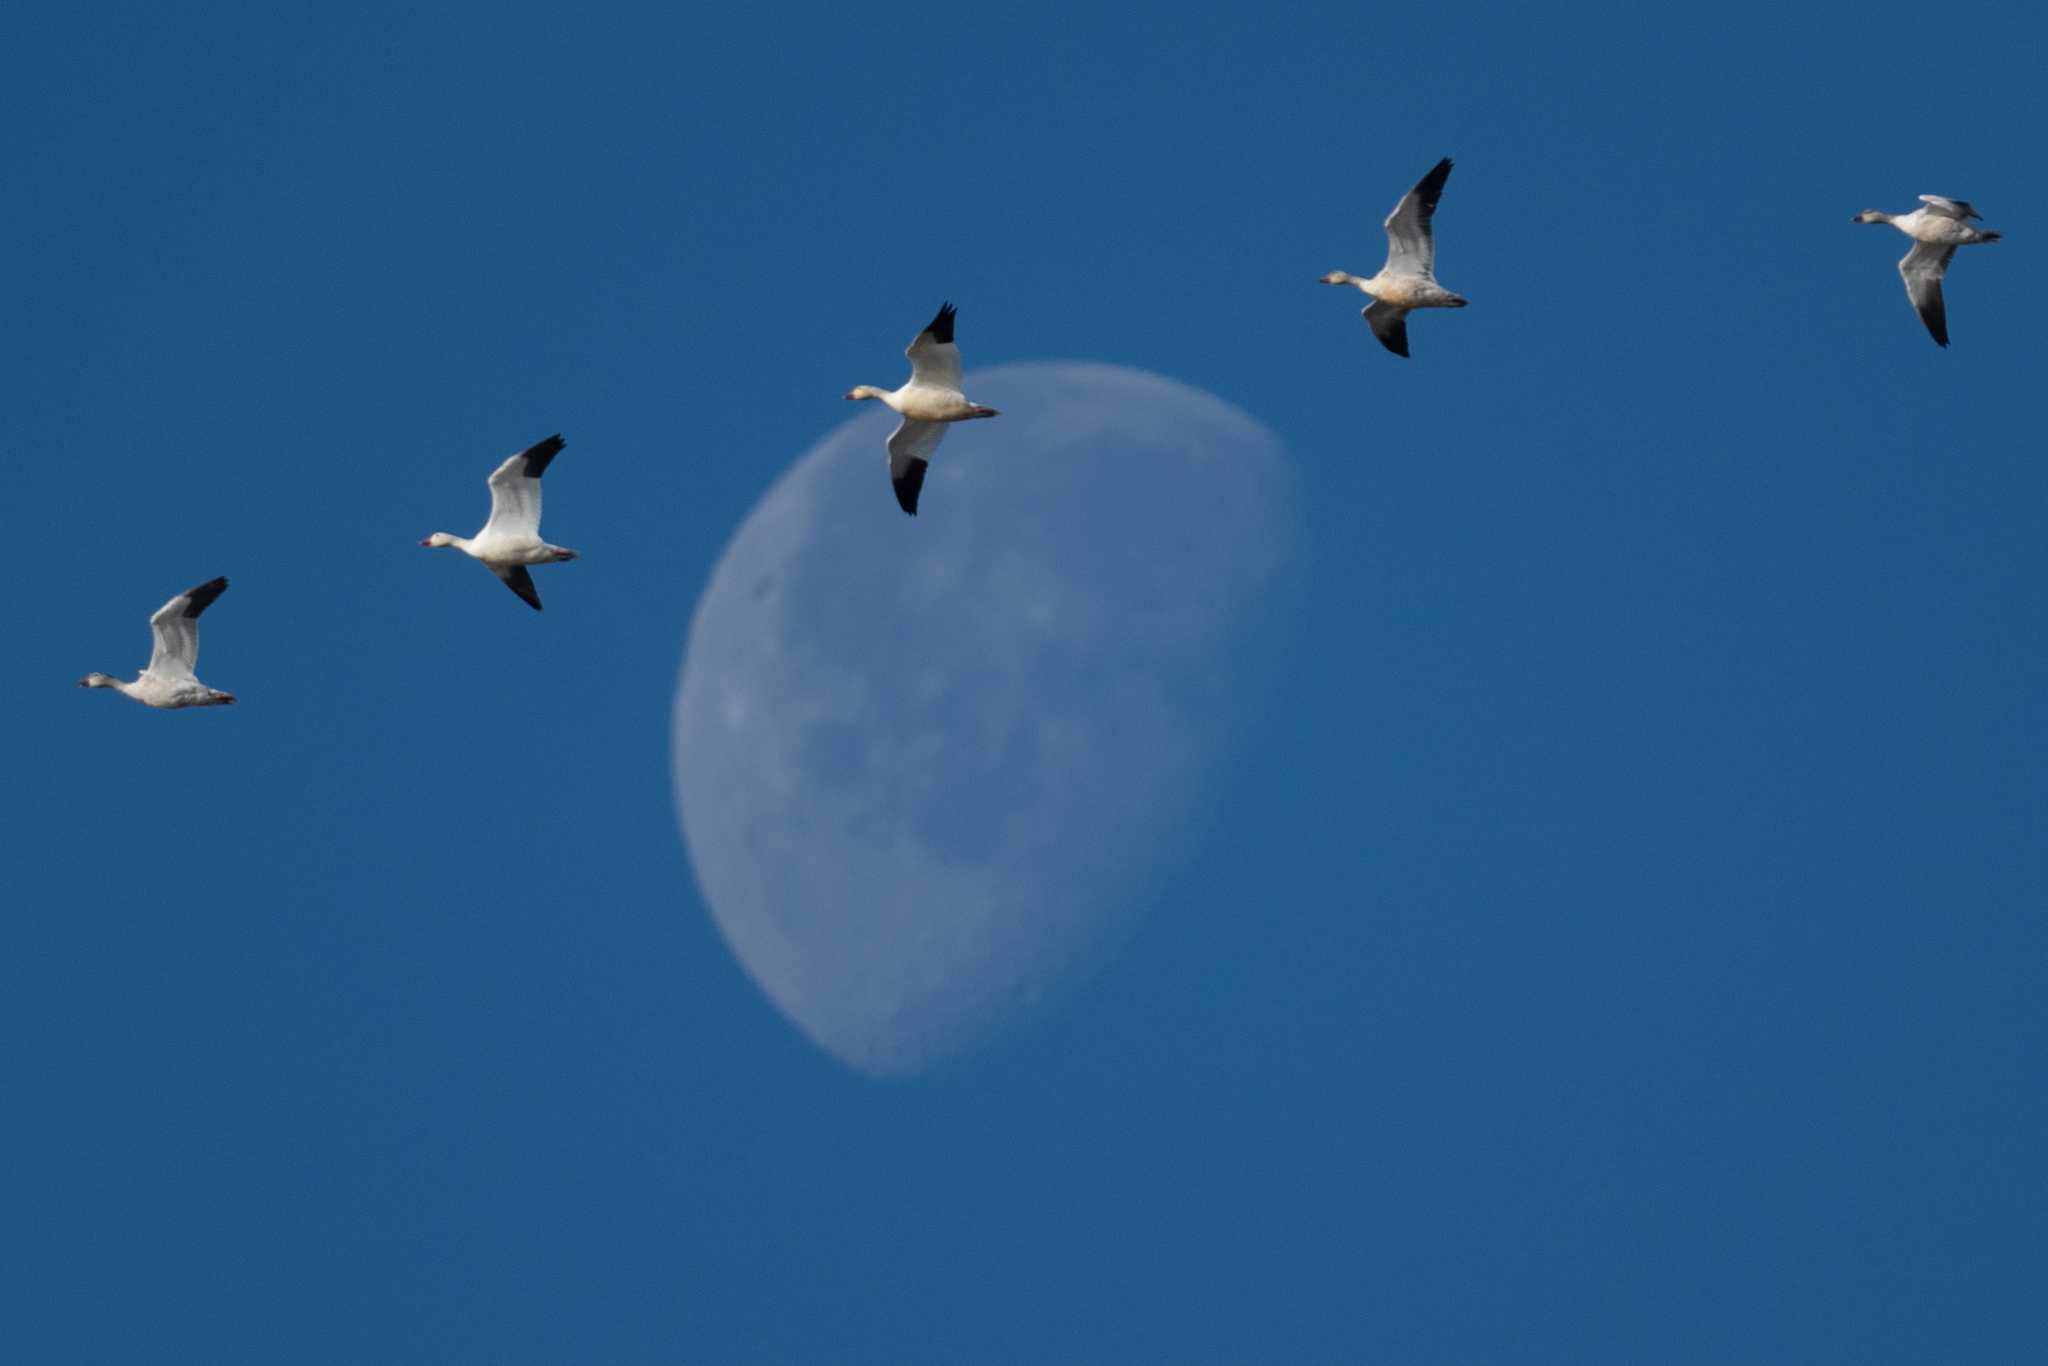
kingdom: Animalia
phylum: Chordata
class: Aves
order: Anseriformes
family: Anatidae
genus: Anser
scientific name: Anser caerulescens
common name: Snow goose
